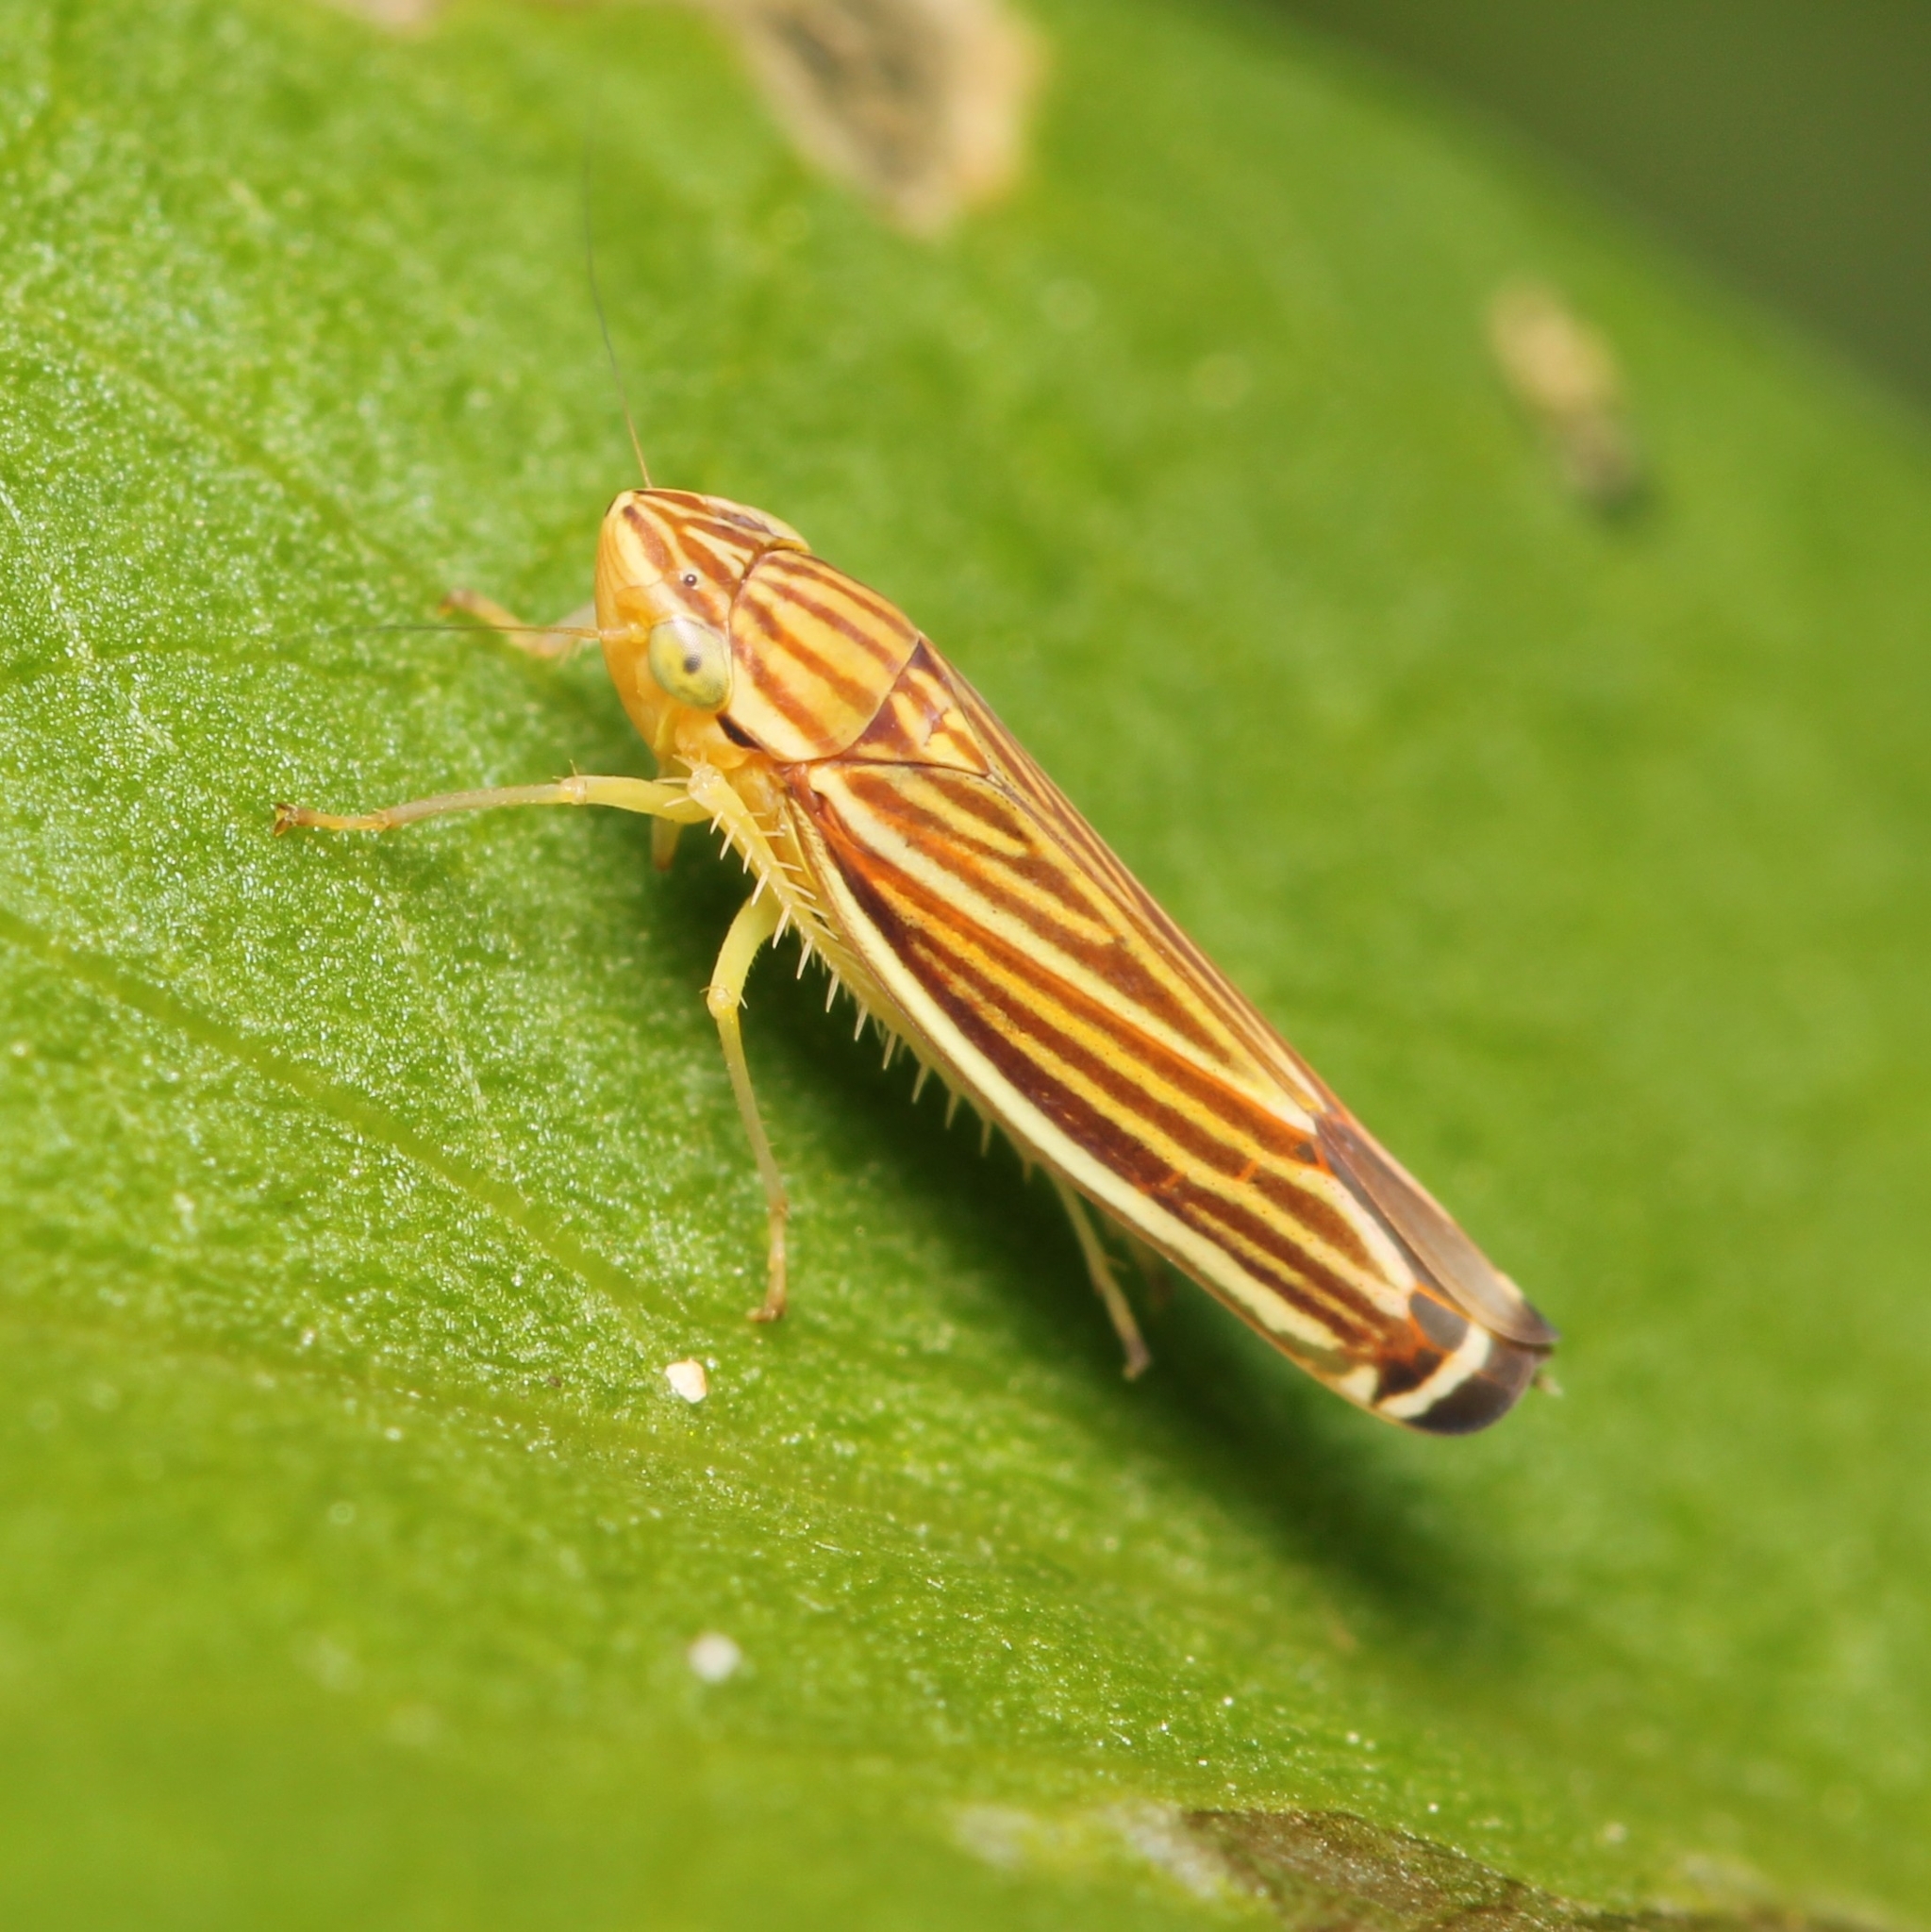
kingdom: Animalia
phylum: Arthropoda
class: Insecta
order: Hemiptera
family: Cicadellidae
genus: Sibovia
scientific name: Sibovia occatoria
